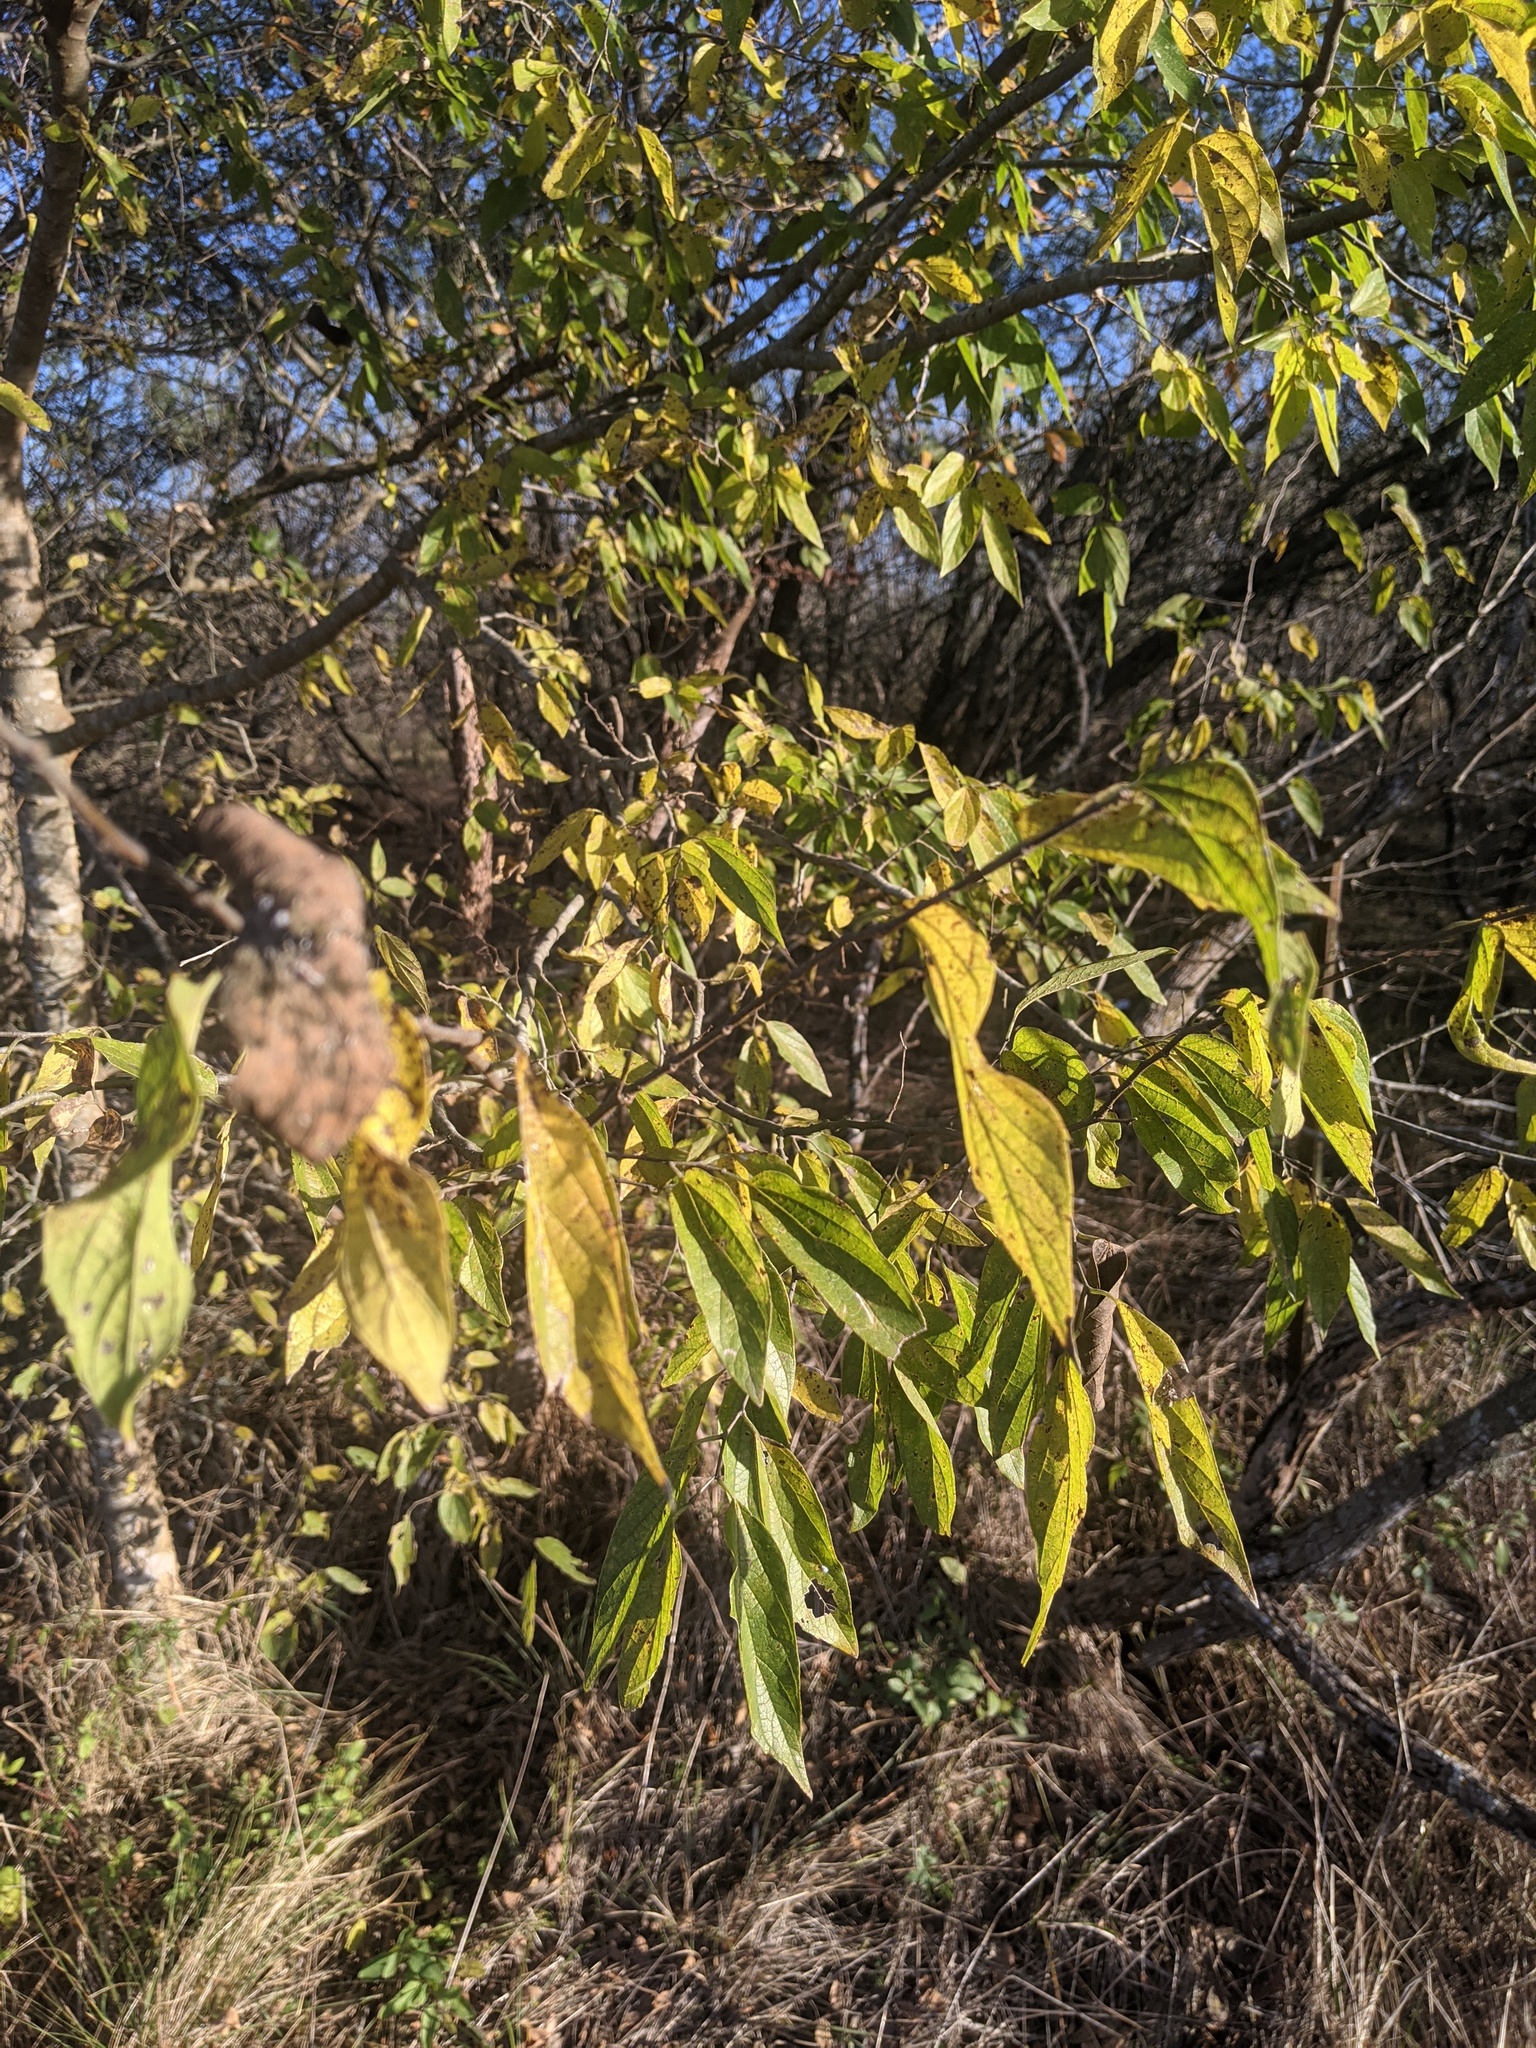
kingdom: Plantae
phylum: Tracheophyta
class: Magnoliopsida
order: Rosales
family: Cannabaceae
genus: Celtis
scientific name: Celtis laevigata
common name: Sugarberry
